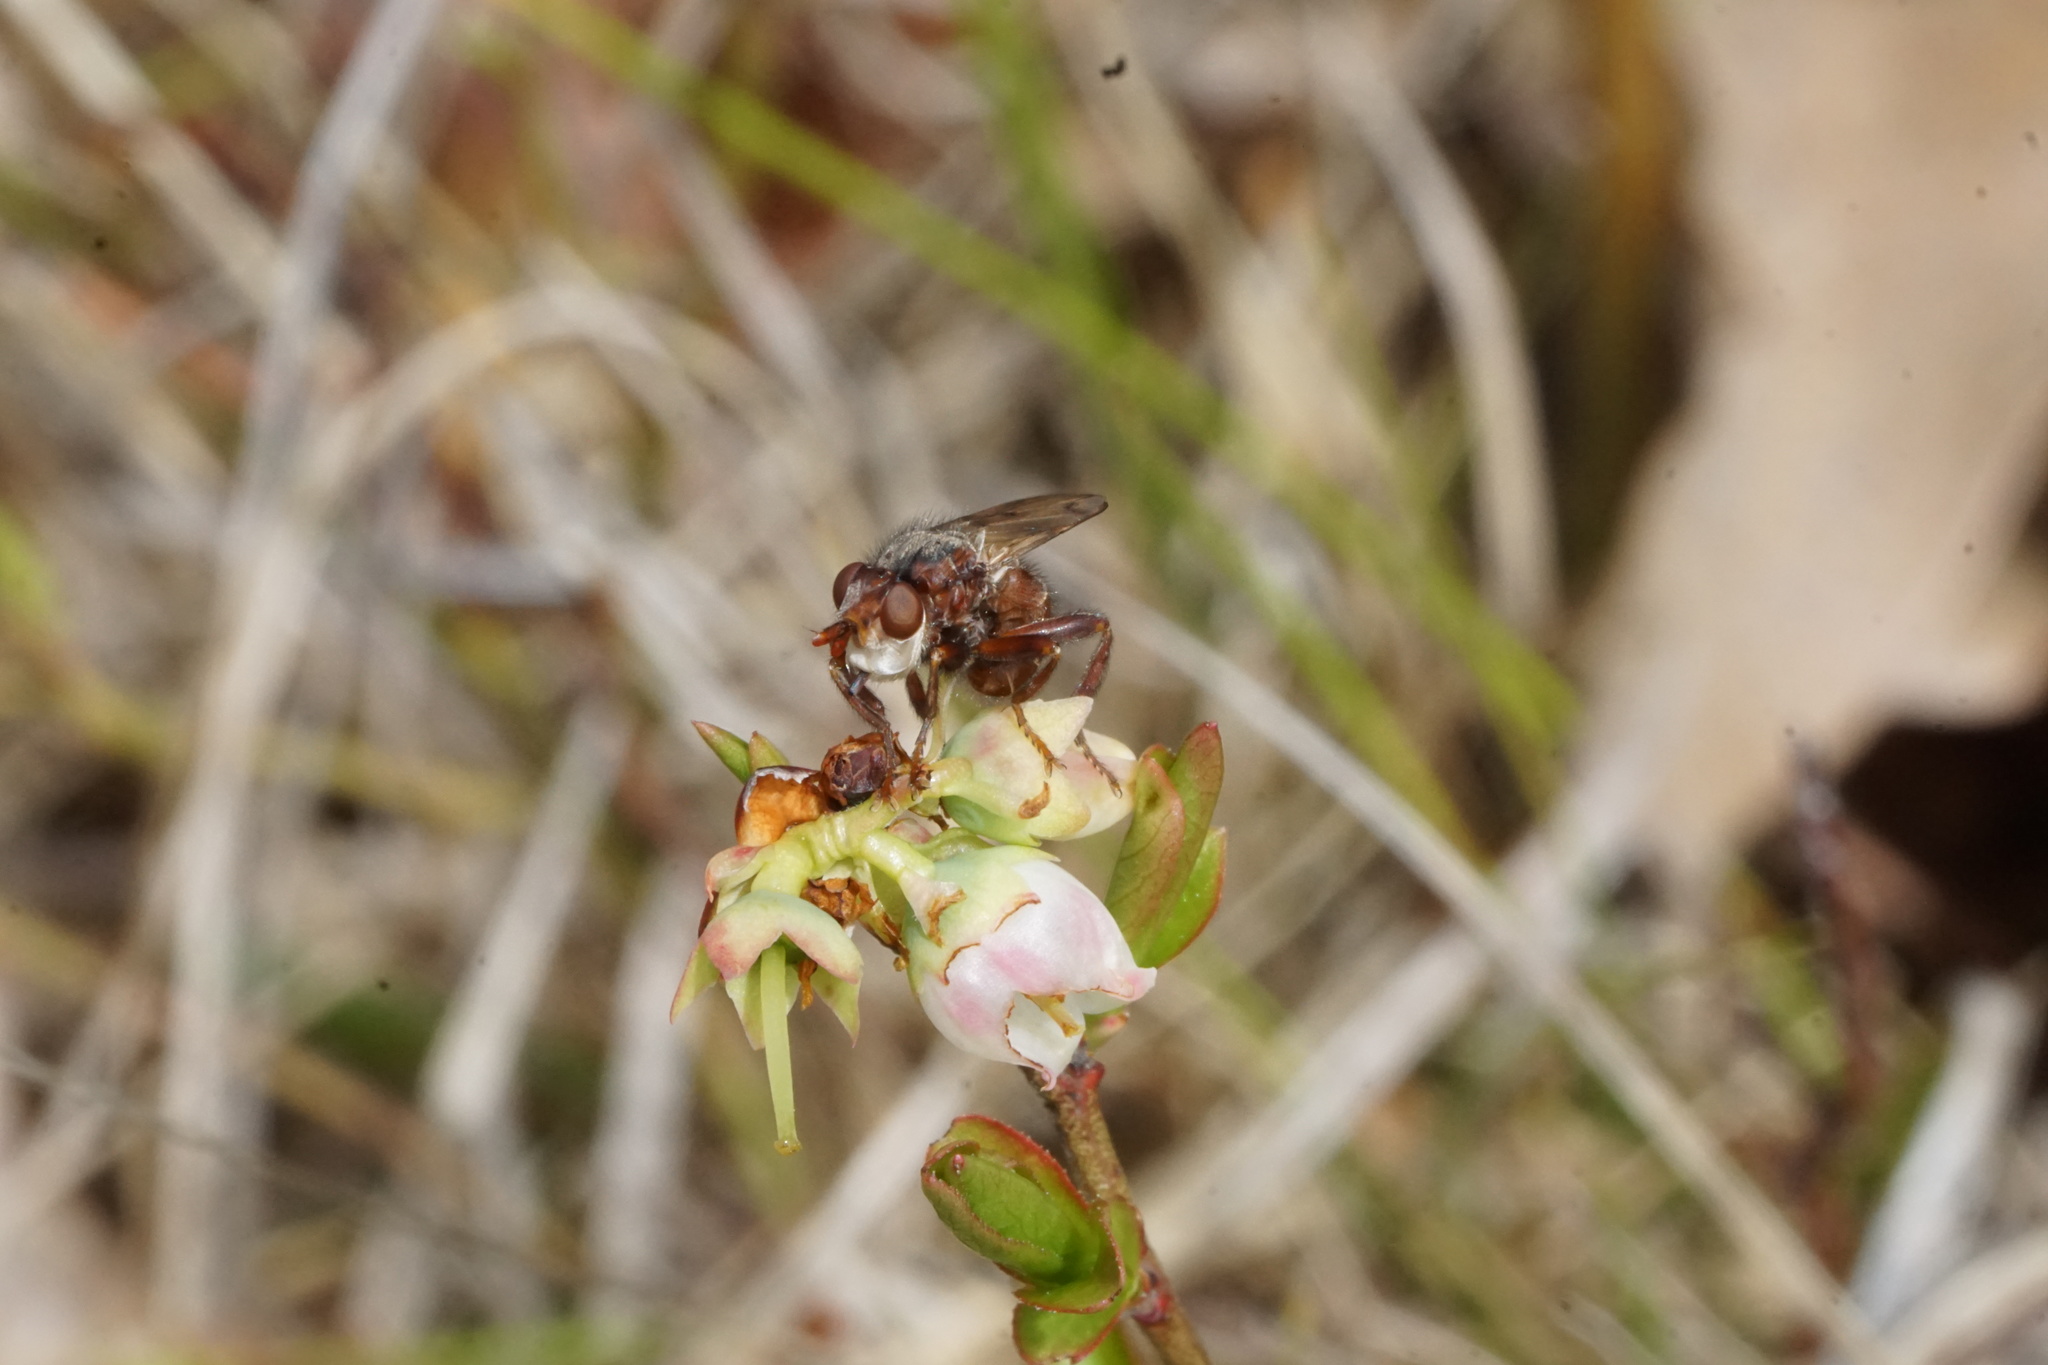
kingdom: Animalia
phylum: Arthropoda
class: Insecta
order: Diptera
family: Conopidae
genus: Myopa
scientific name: Myopa vicaria
